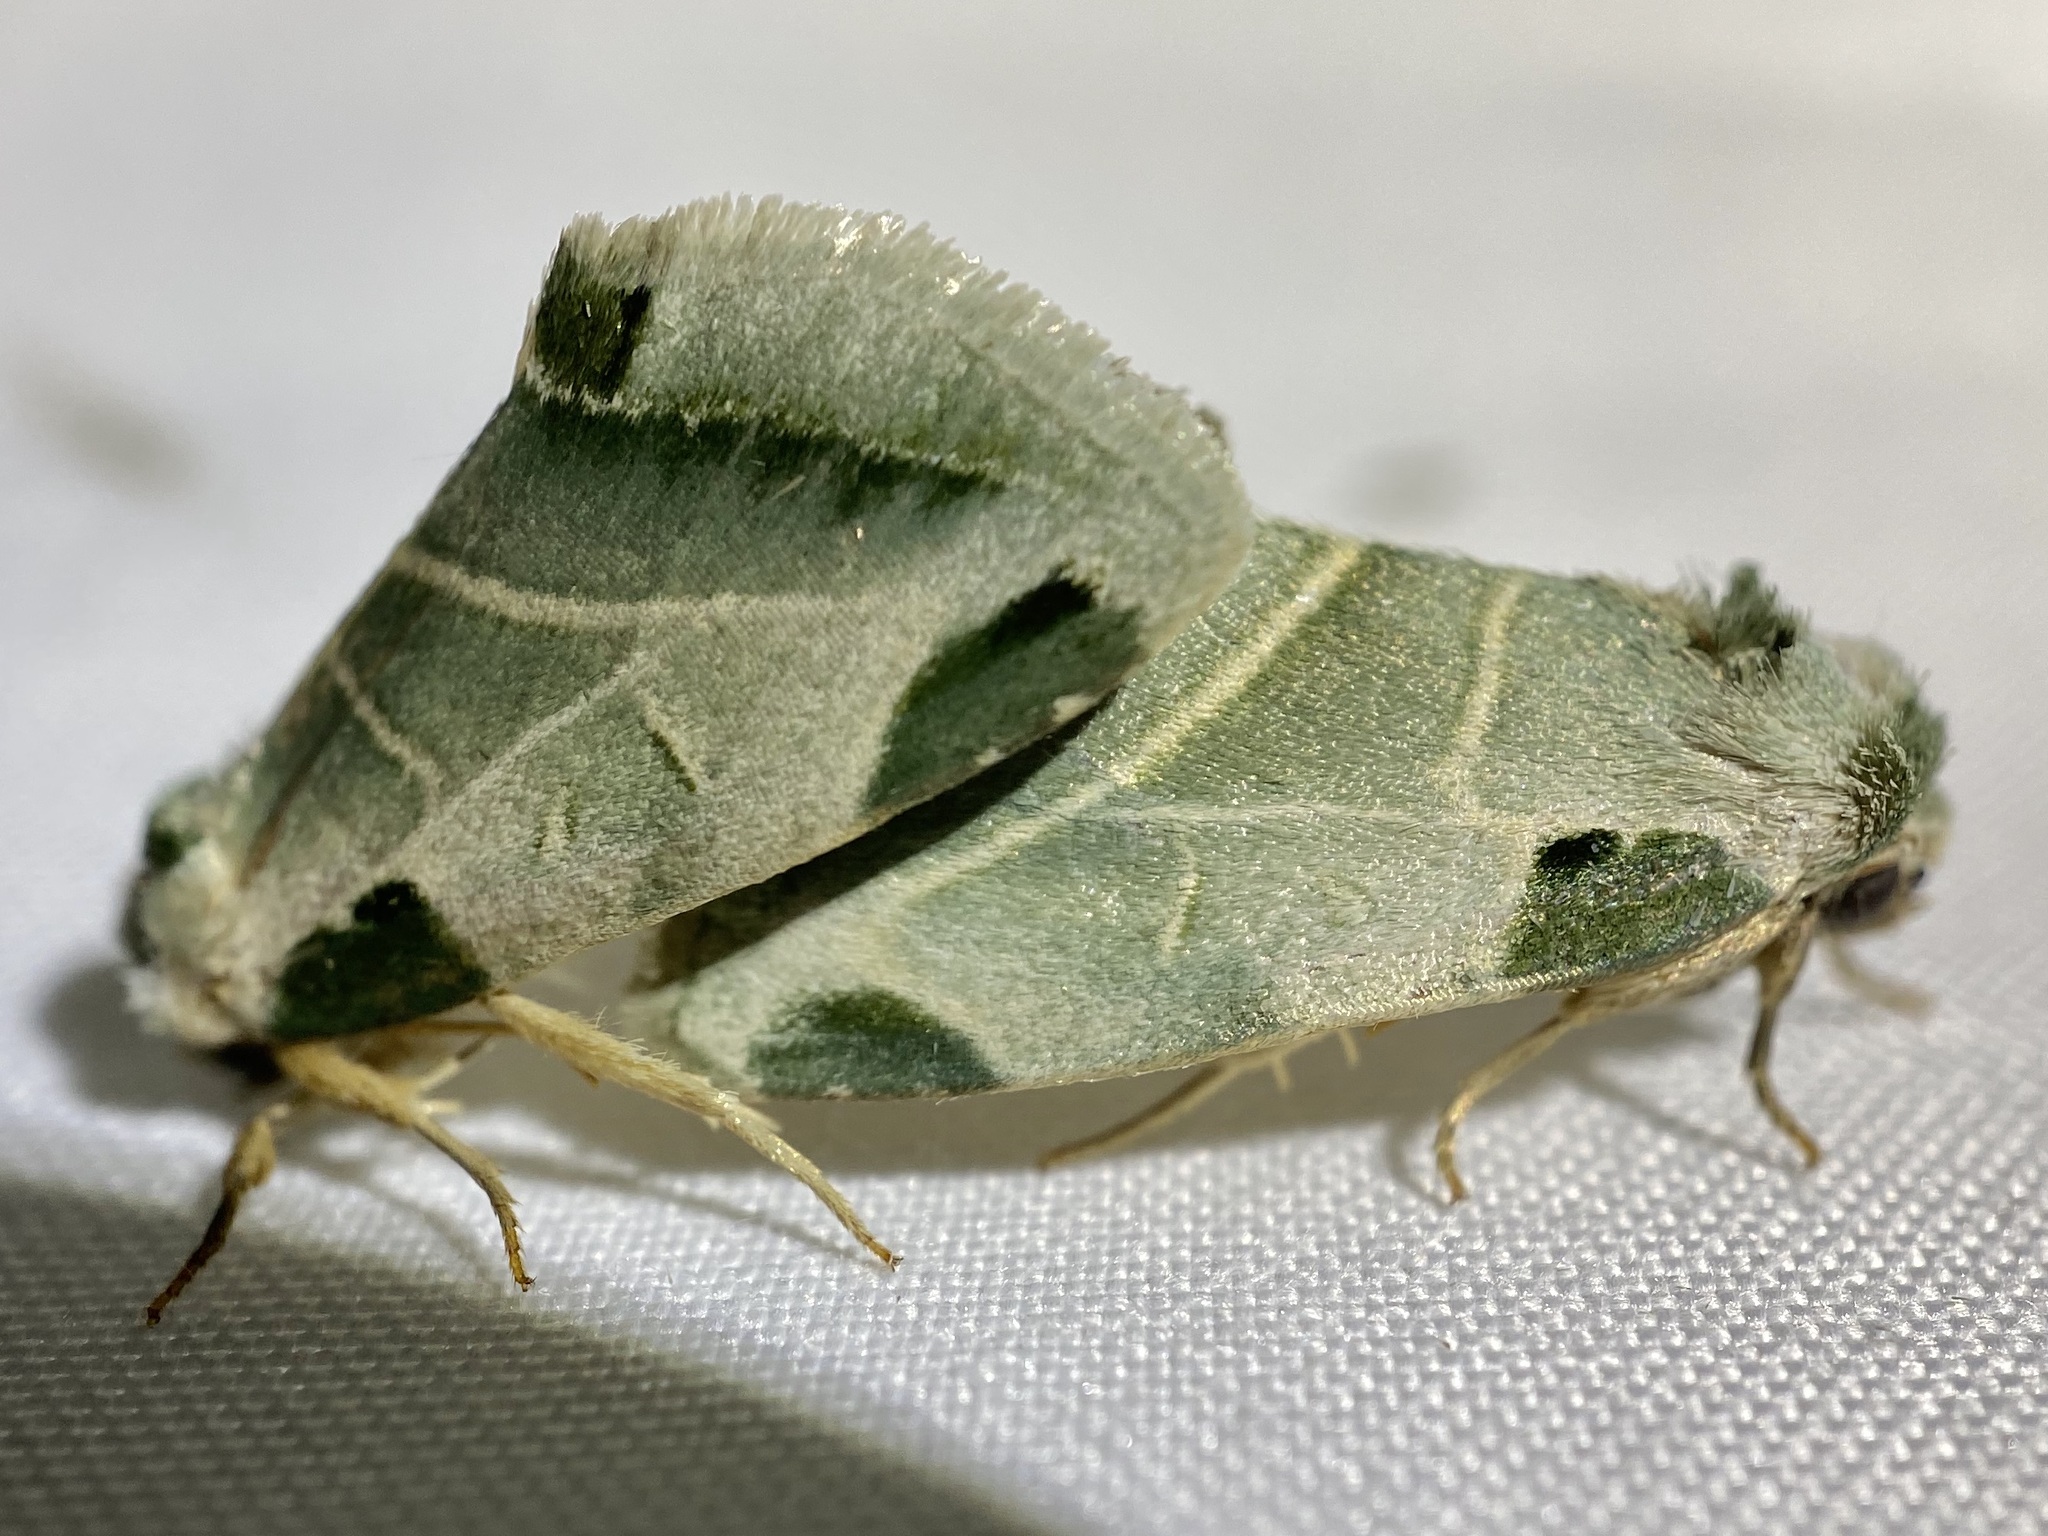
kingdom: Animalia
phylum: Arthropoda
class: Insecta
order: Lepidoptera
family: Noctuidae
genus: Heminocloa
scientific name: Heminocloa mirabilis
